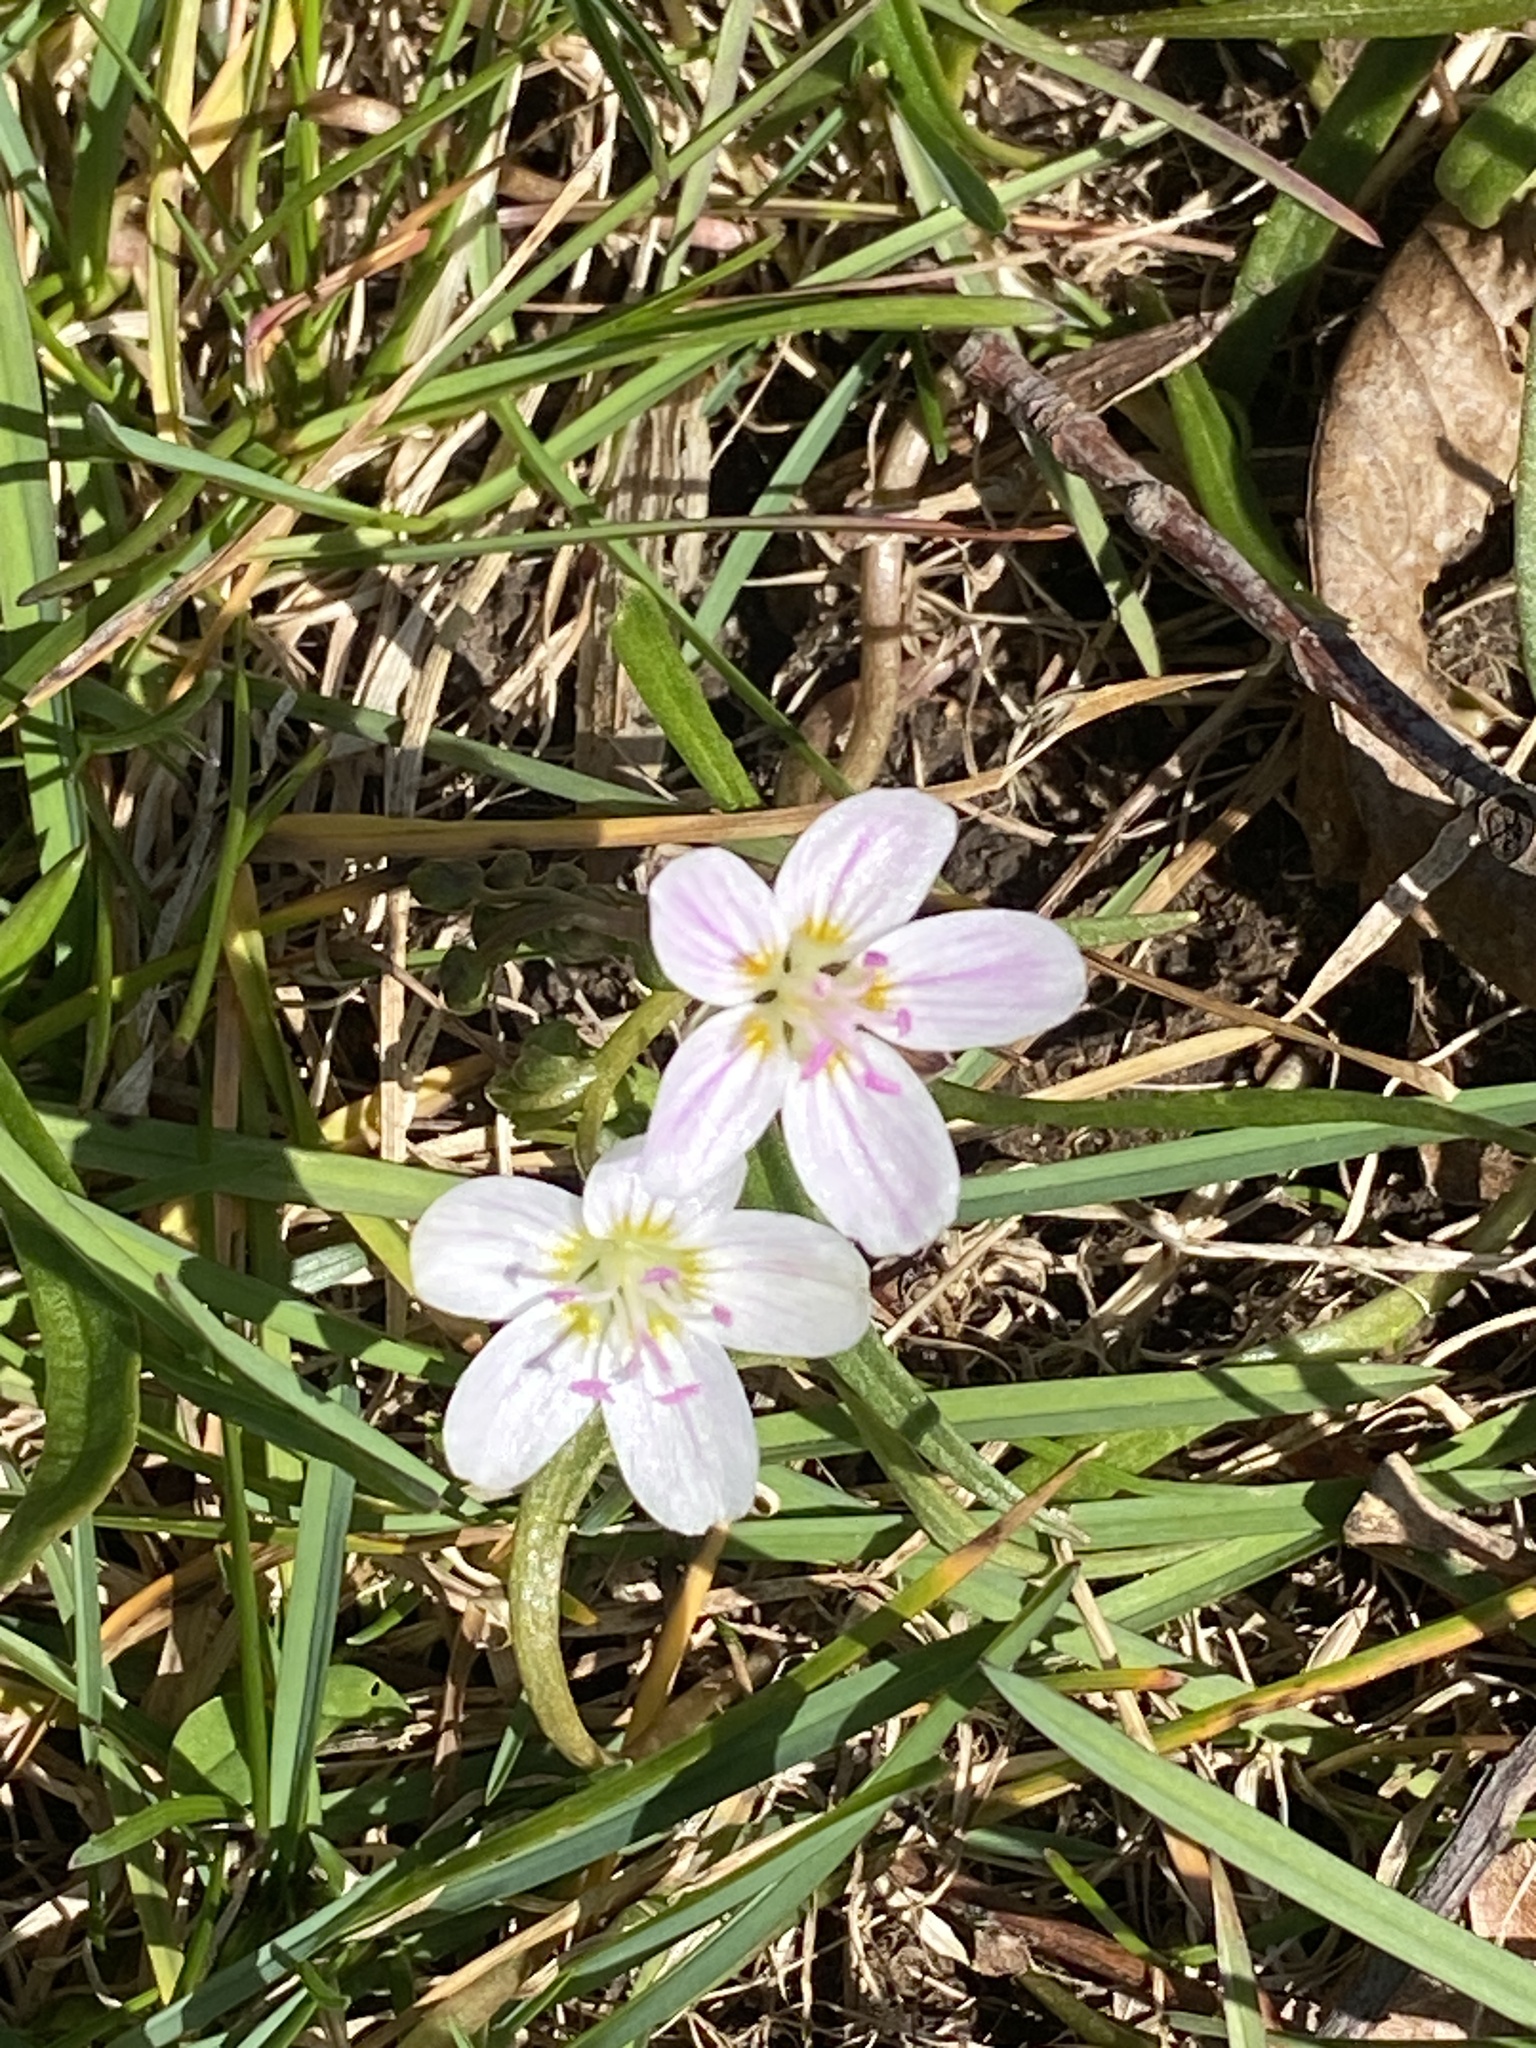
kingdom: Plantae
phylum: Tracheophyta
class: Magnoliopsida
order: Caryophyllales
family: Montiaceae
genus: Claytonia
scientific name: Claytonia virginica
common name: Virginia springbeauty
